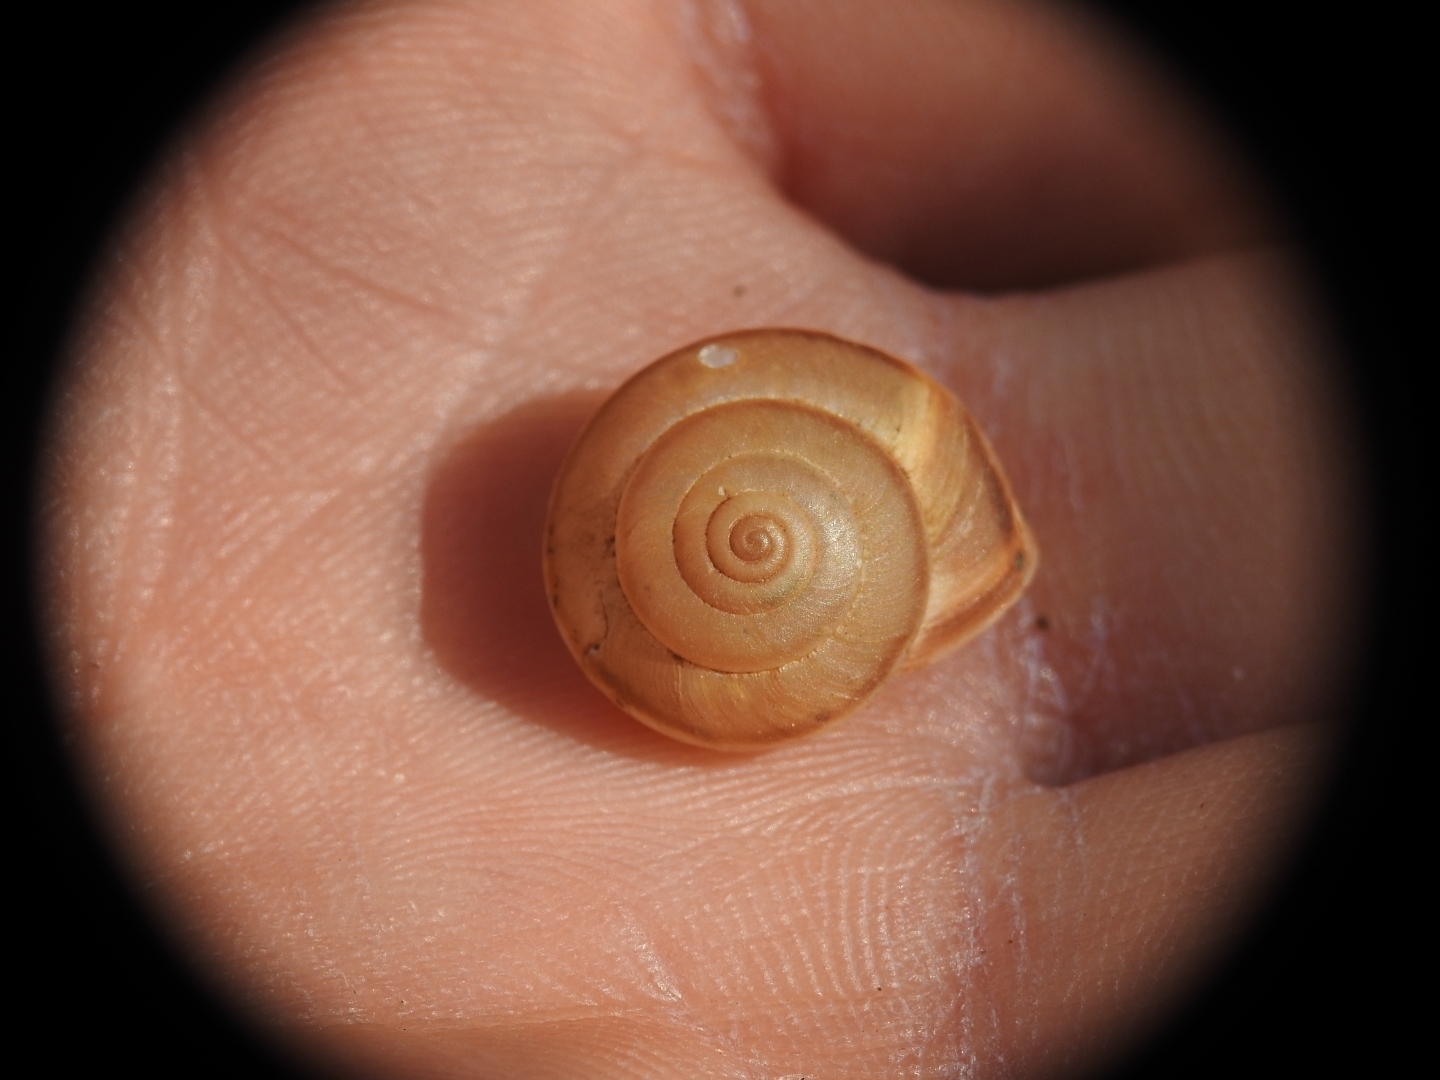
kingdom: Animalia
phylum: Mollusca
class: Gastropoda
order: Stylommatophora
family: Hygromiidae
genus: Metafruticicola
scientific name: Metafruticicola noverca
